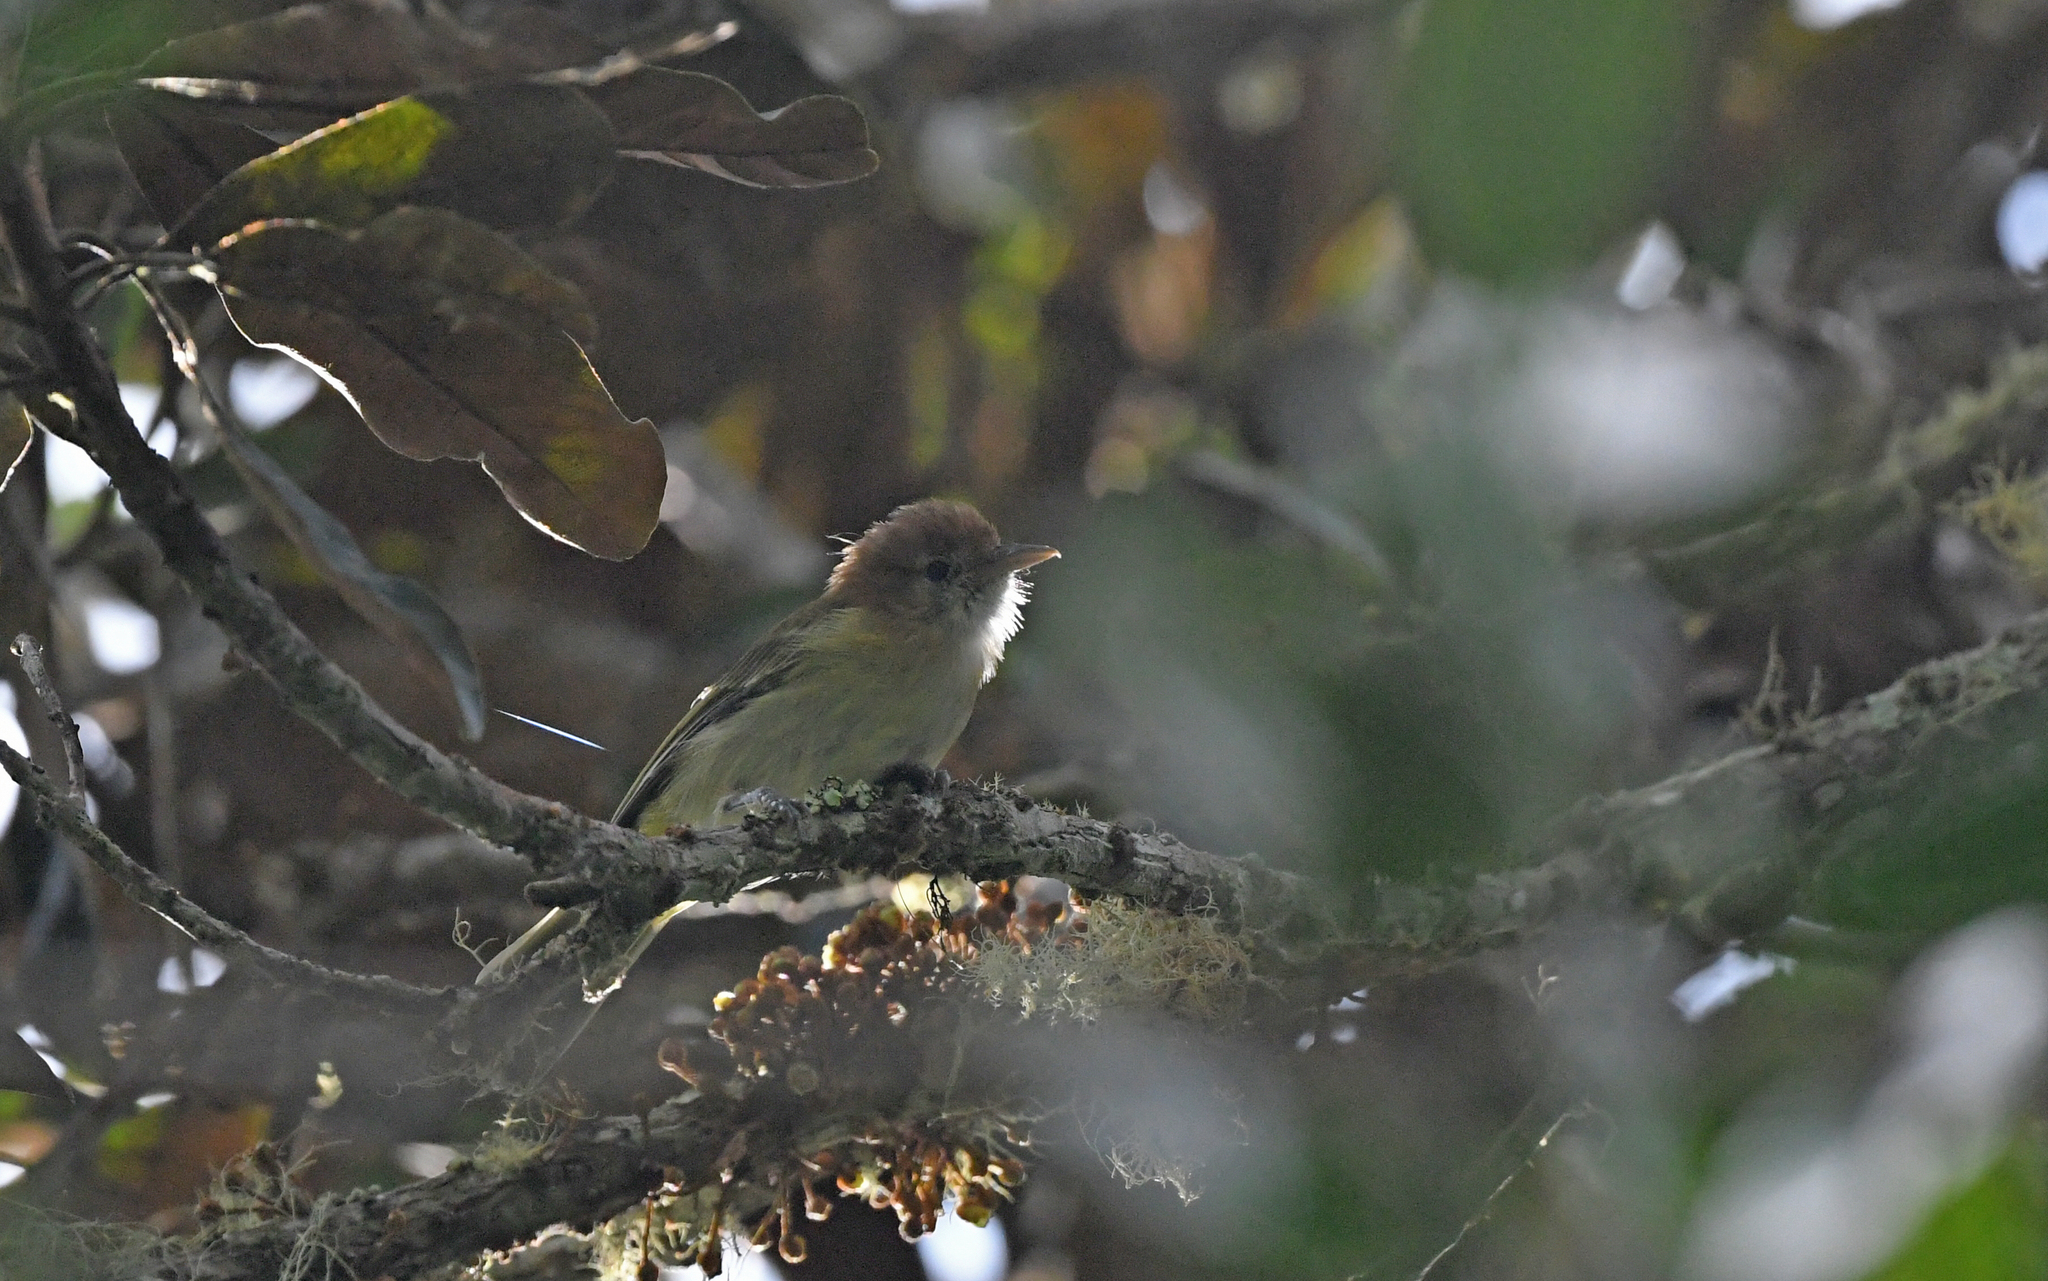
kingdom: Animalia
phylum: Chordata
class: Aves
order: Passeriformes
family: Vireonidae
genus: Hylophilus
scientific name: Hylophilus semibrunneus
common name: Rufous-naped greenlet
